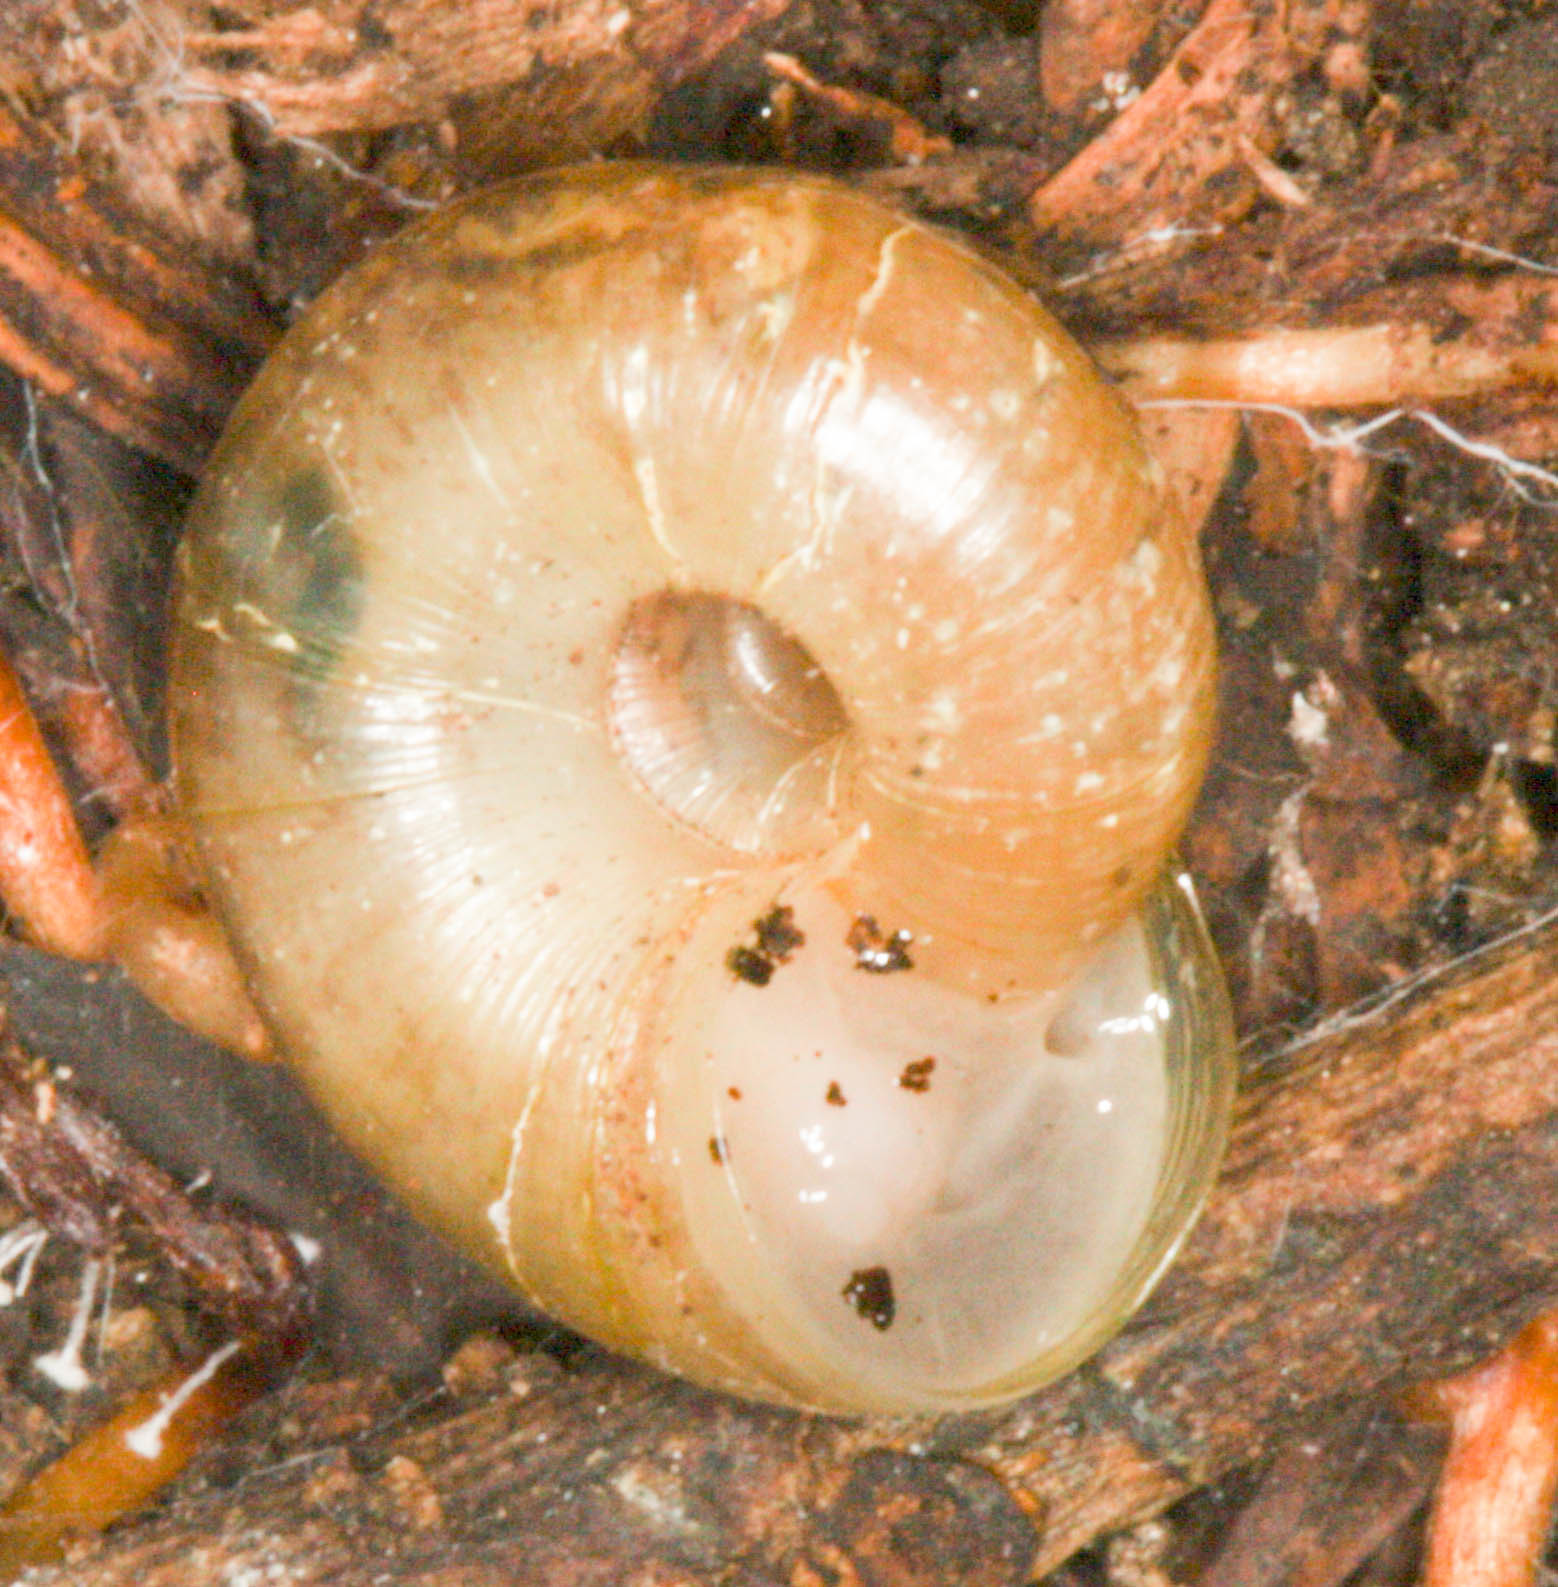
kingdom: Animalia
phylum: Mollusca
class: Gastropoda
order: Stylommatophora
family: Haplotrematidae
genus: Haplotrema
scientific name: Haplotrema minimum
